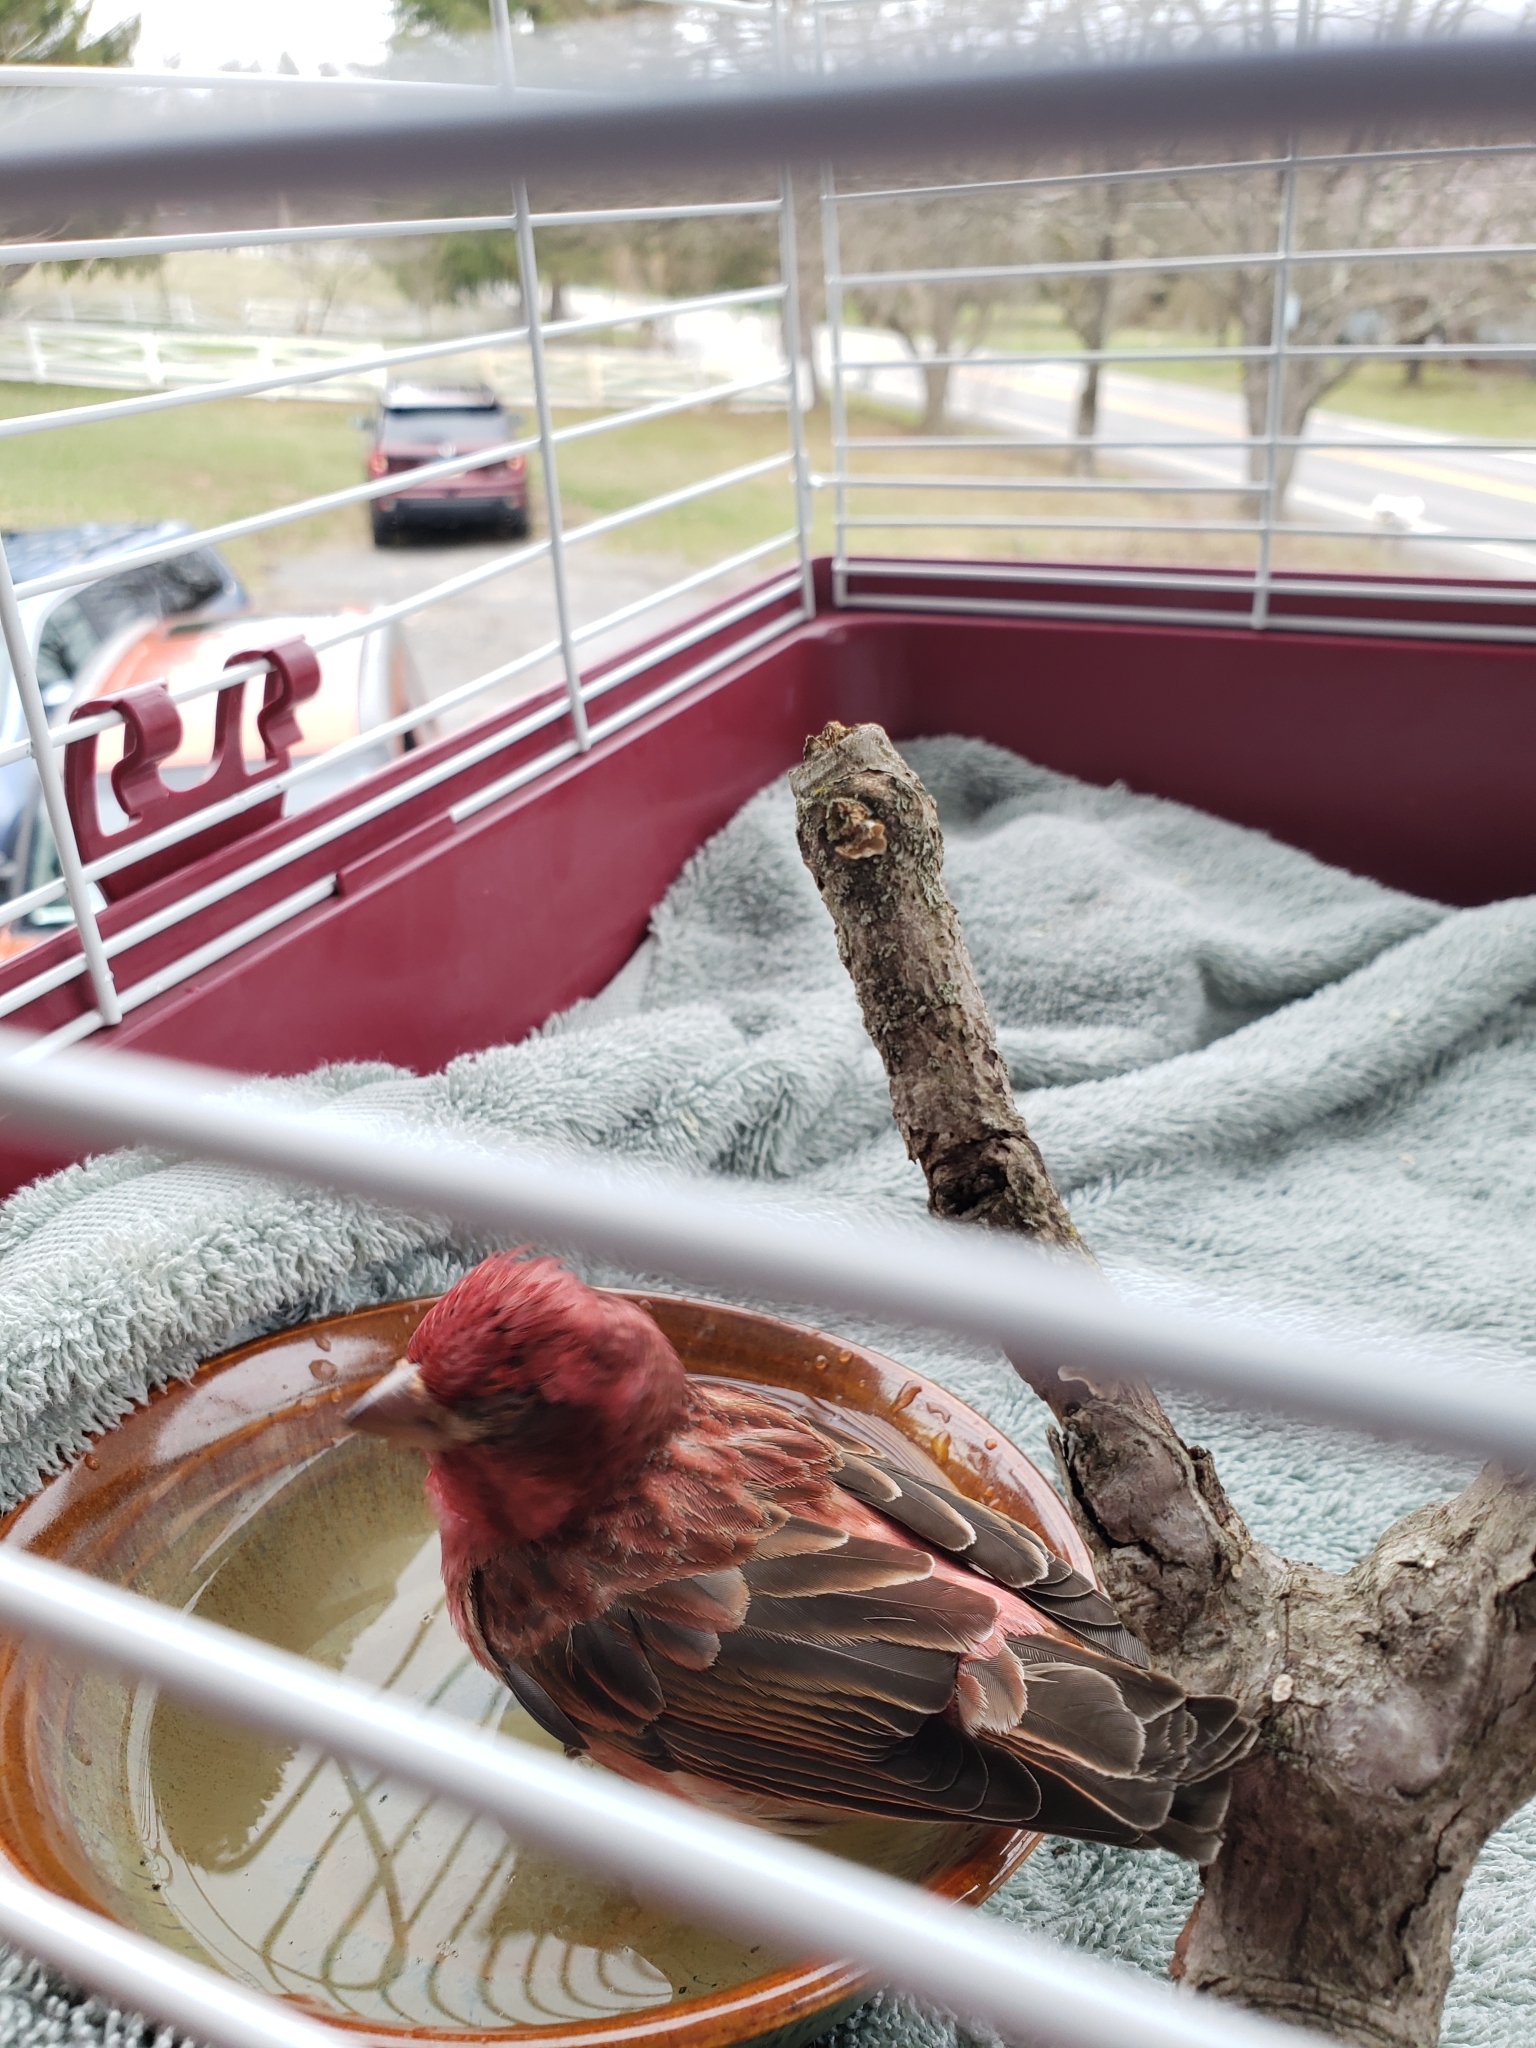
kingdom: Animalia
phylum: Chordata
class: Aves
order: Passeriformes
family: Fringillidae
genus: Haemorhous
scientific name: Haemorhous purpureus
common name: Purple finch
